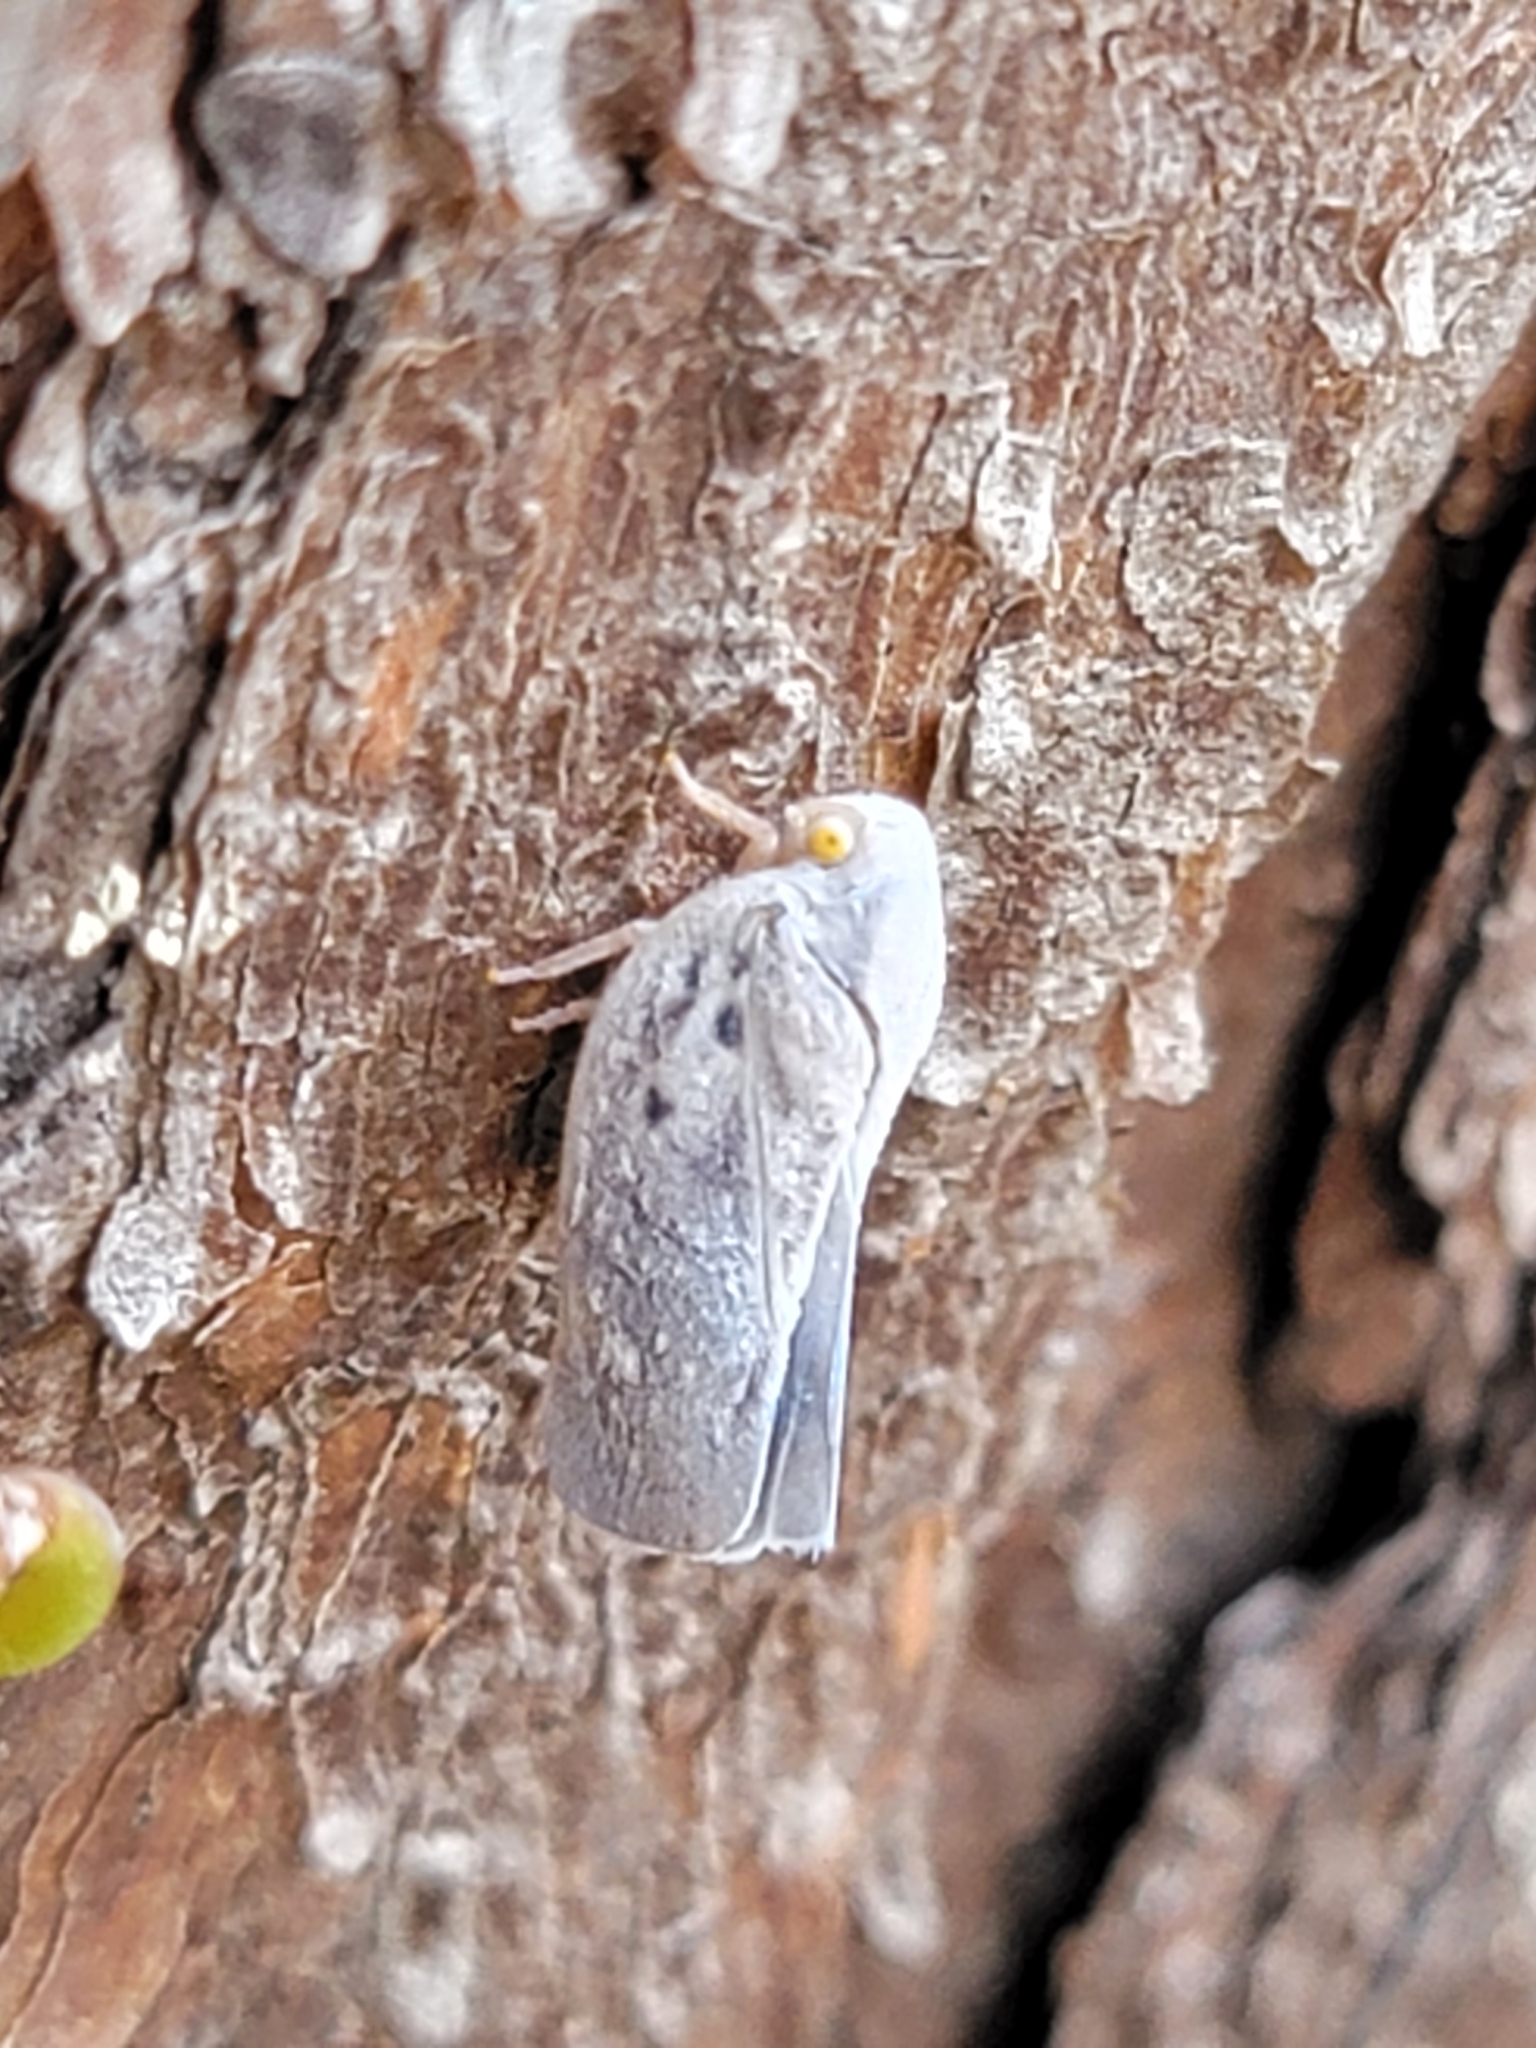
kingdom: Animalia
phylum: Arthropoda
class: Insecta
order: Hemiptera
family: Flatidae
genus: Metcalfa
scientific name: Metcalfa pruinosa
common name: Citrus flatid planthopper
